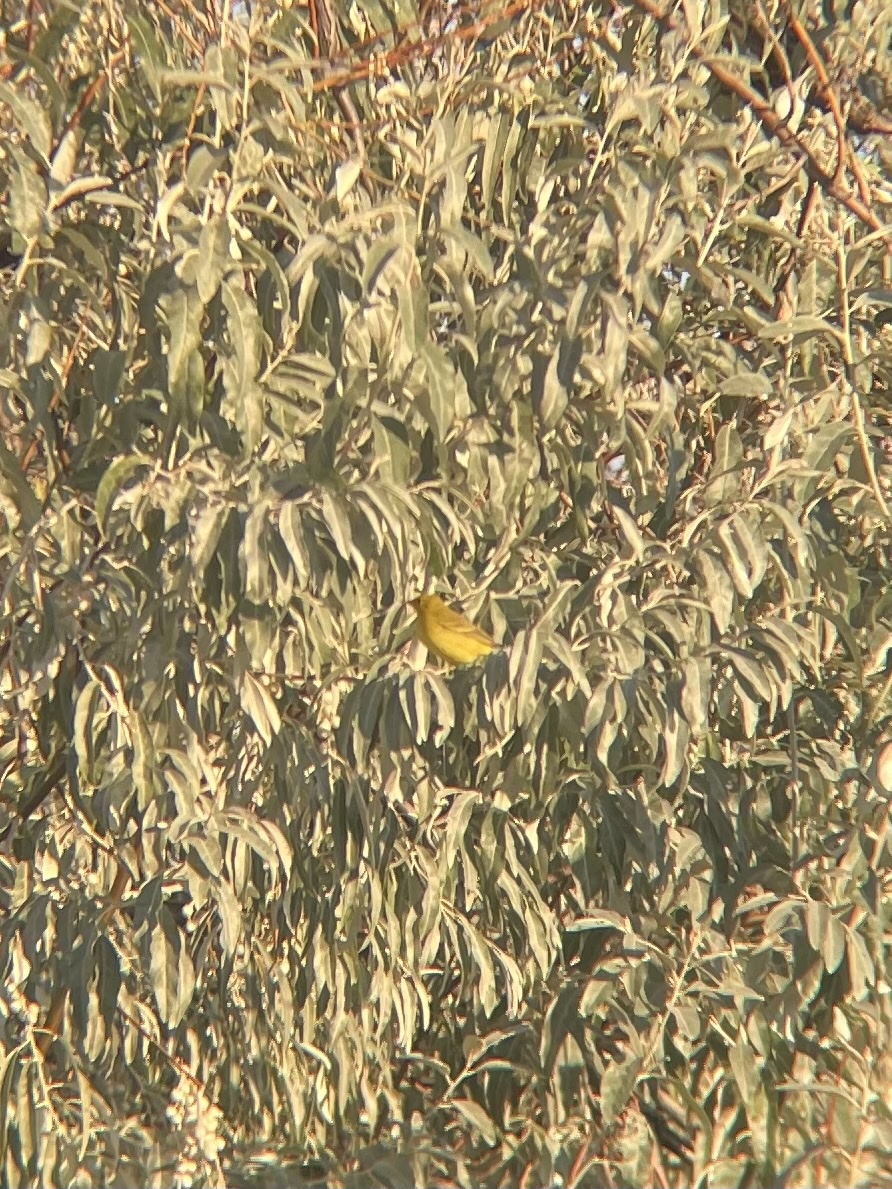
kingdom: Animalia
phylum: Chordata
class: Aves
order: Passeriformes
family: Parulidae
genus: Setophaga
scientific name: Setophaga petechia
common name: Yellow warbler
